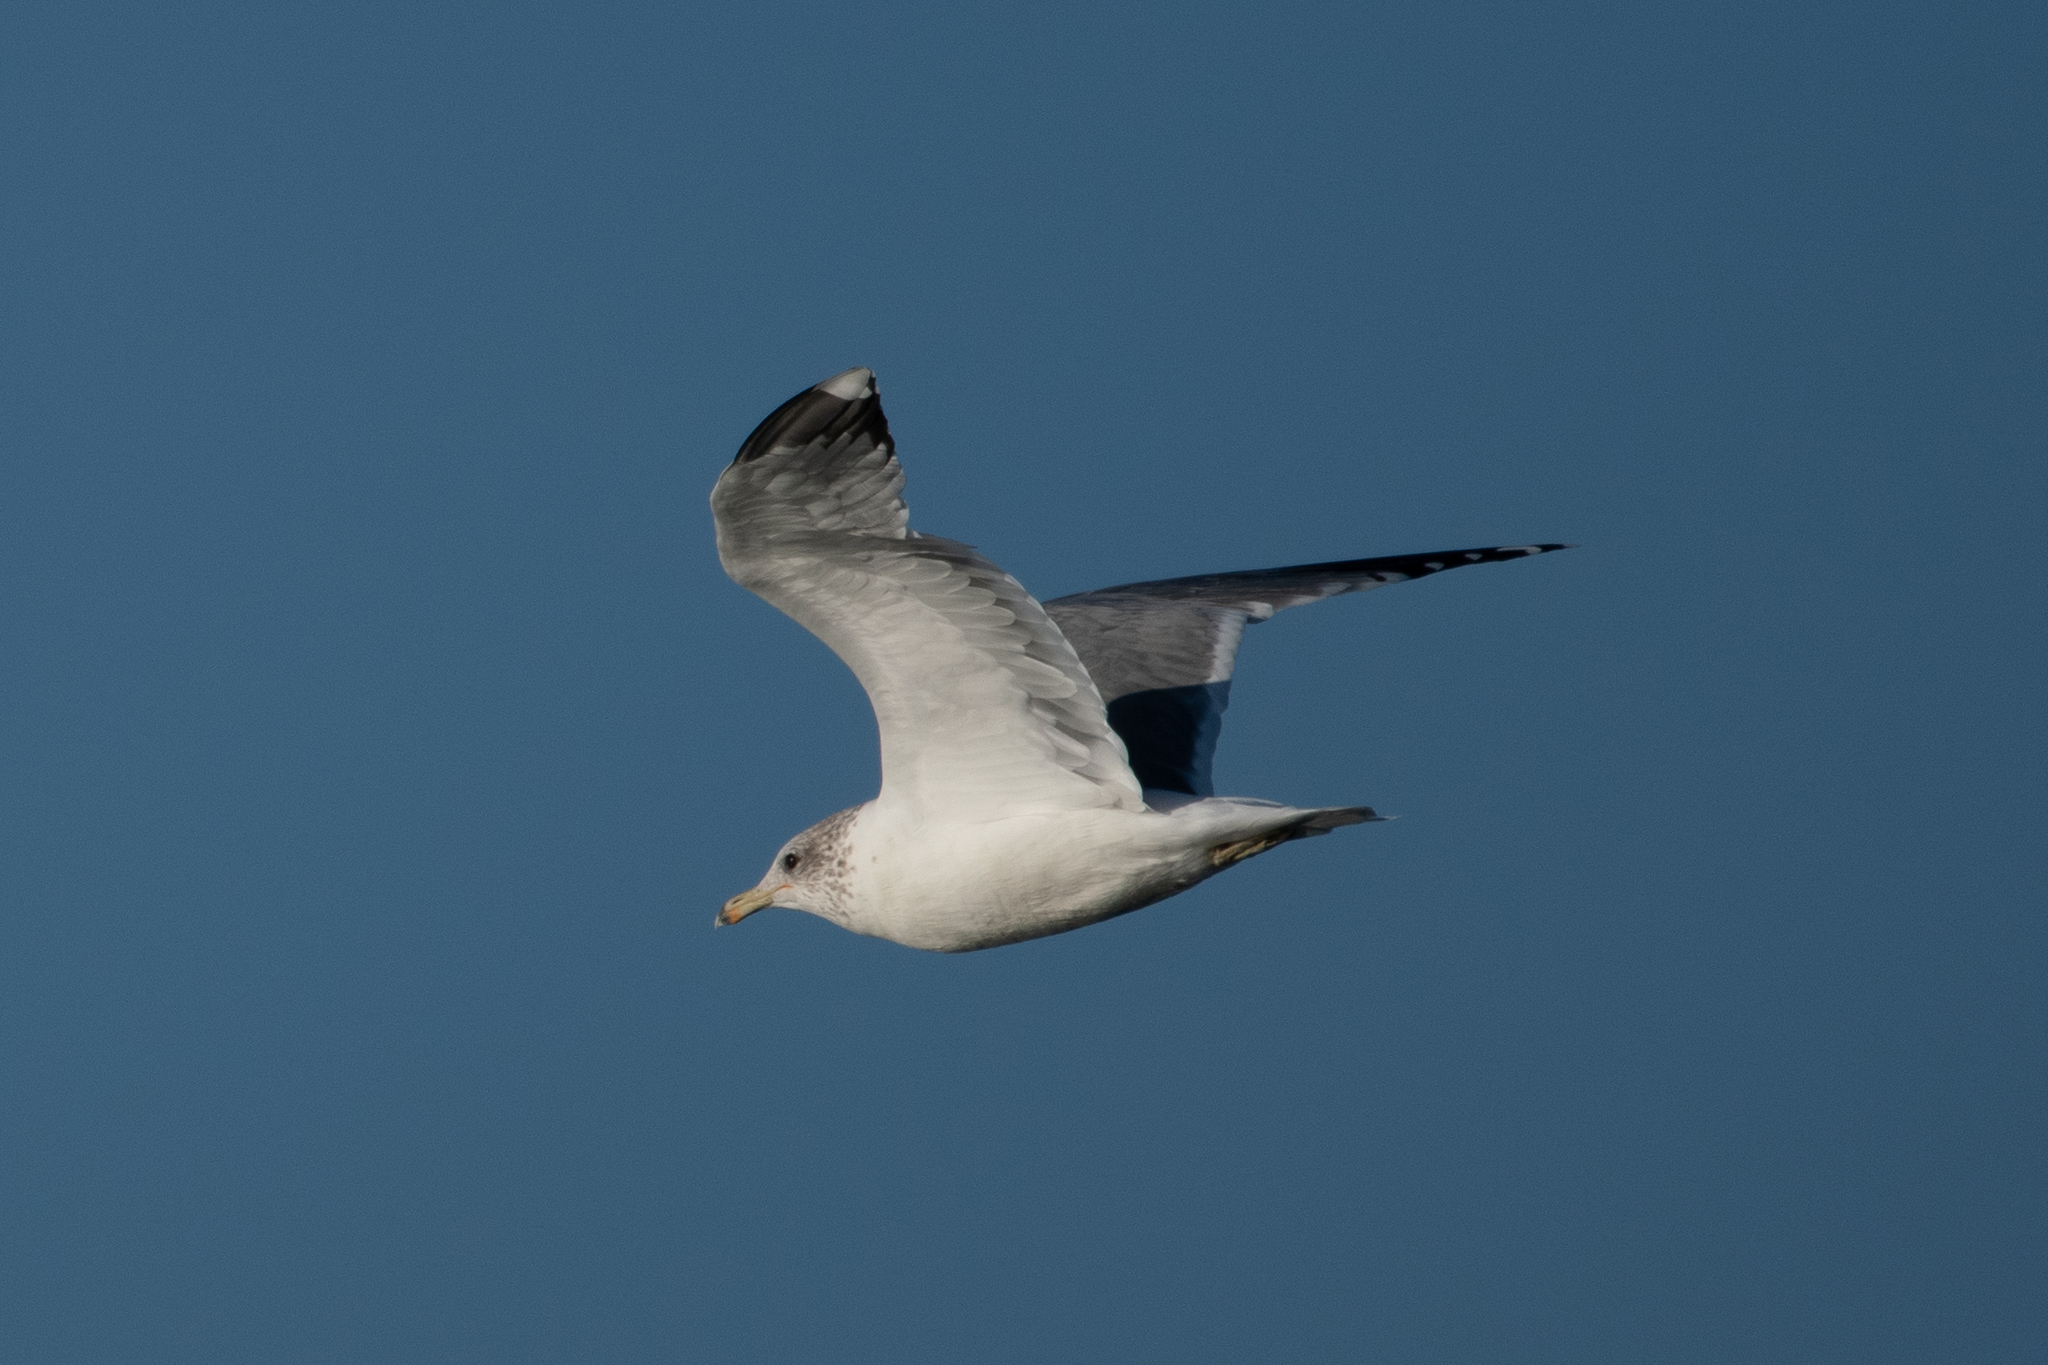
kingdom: Animalia
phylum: Chordata
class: Aves
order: Charadriiformes
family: Laridae
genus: Larus
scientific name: Larus californicus
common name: California gull
